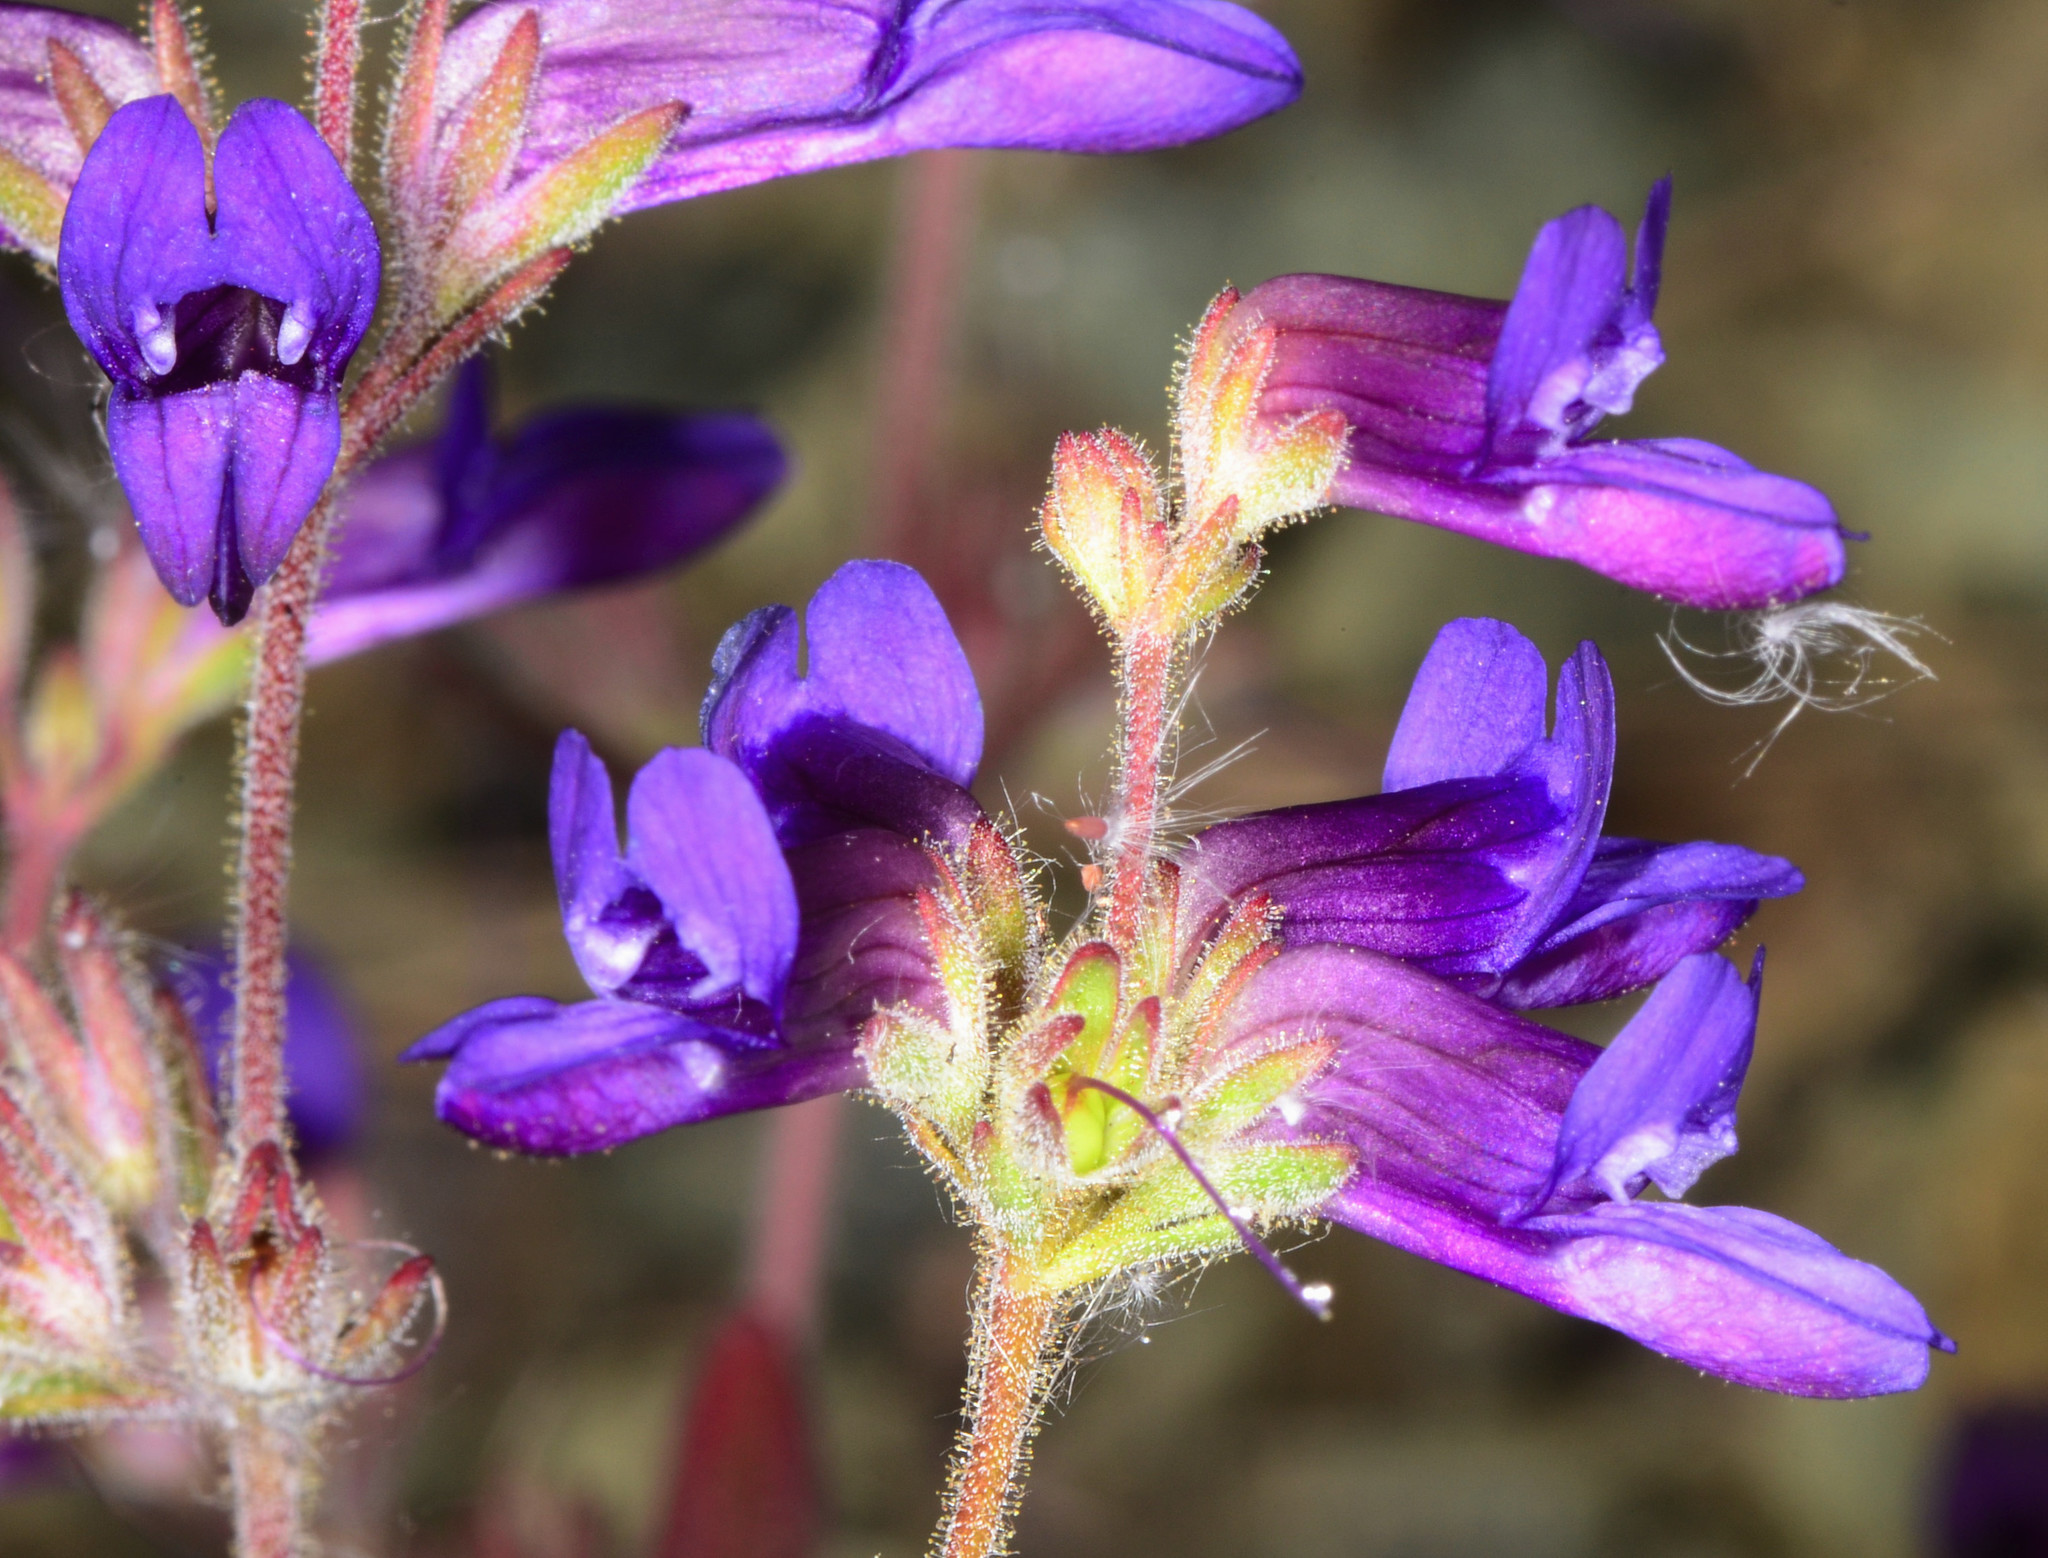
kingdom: Plantae
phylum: Tracheophyta
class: Magnoliopsida
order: Lamiales
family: Plantaginaceae
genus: Collinsia
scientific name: Collinsia greenei
